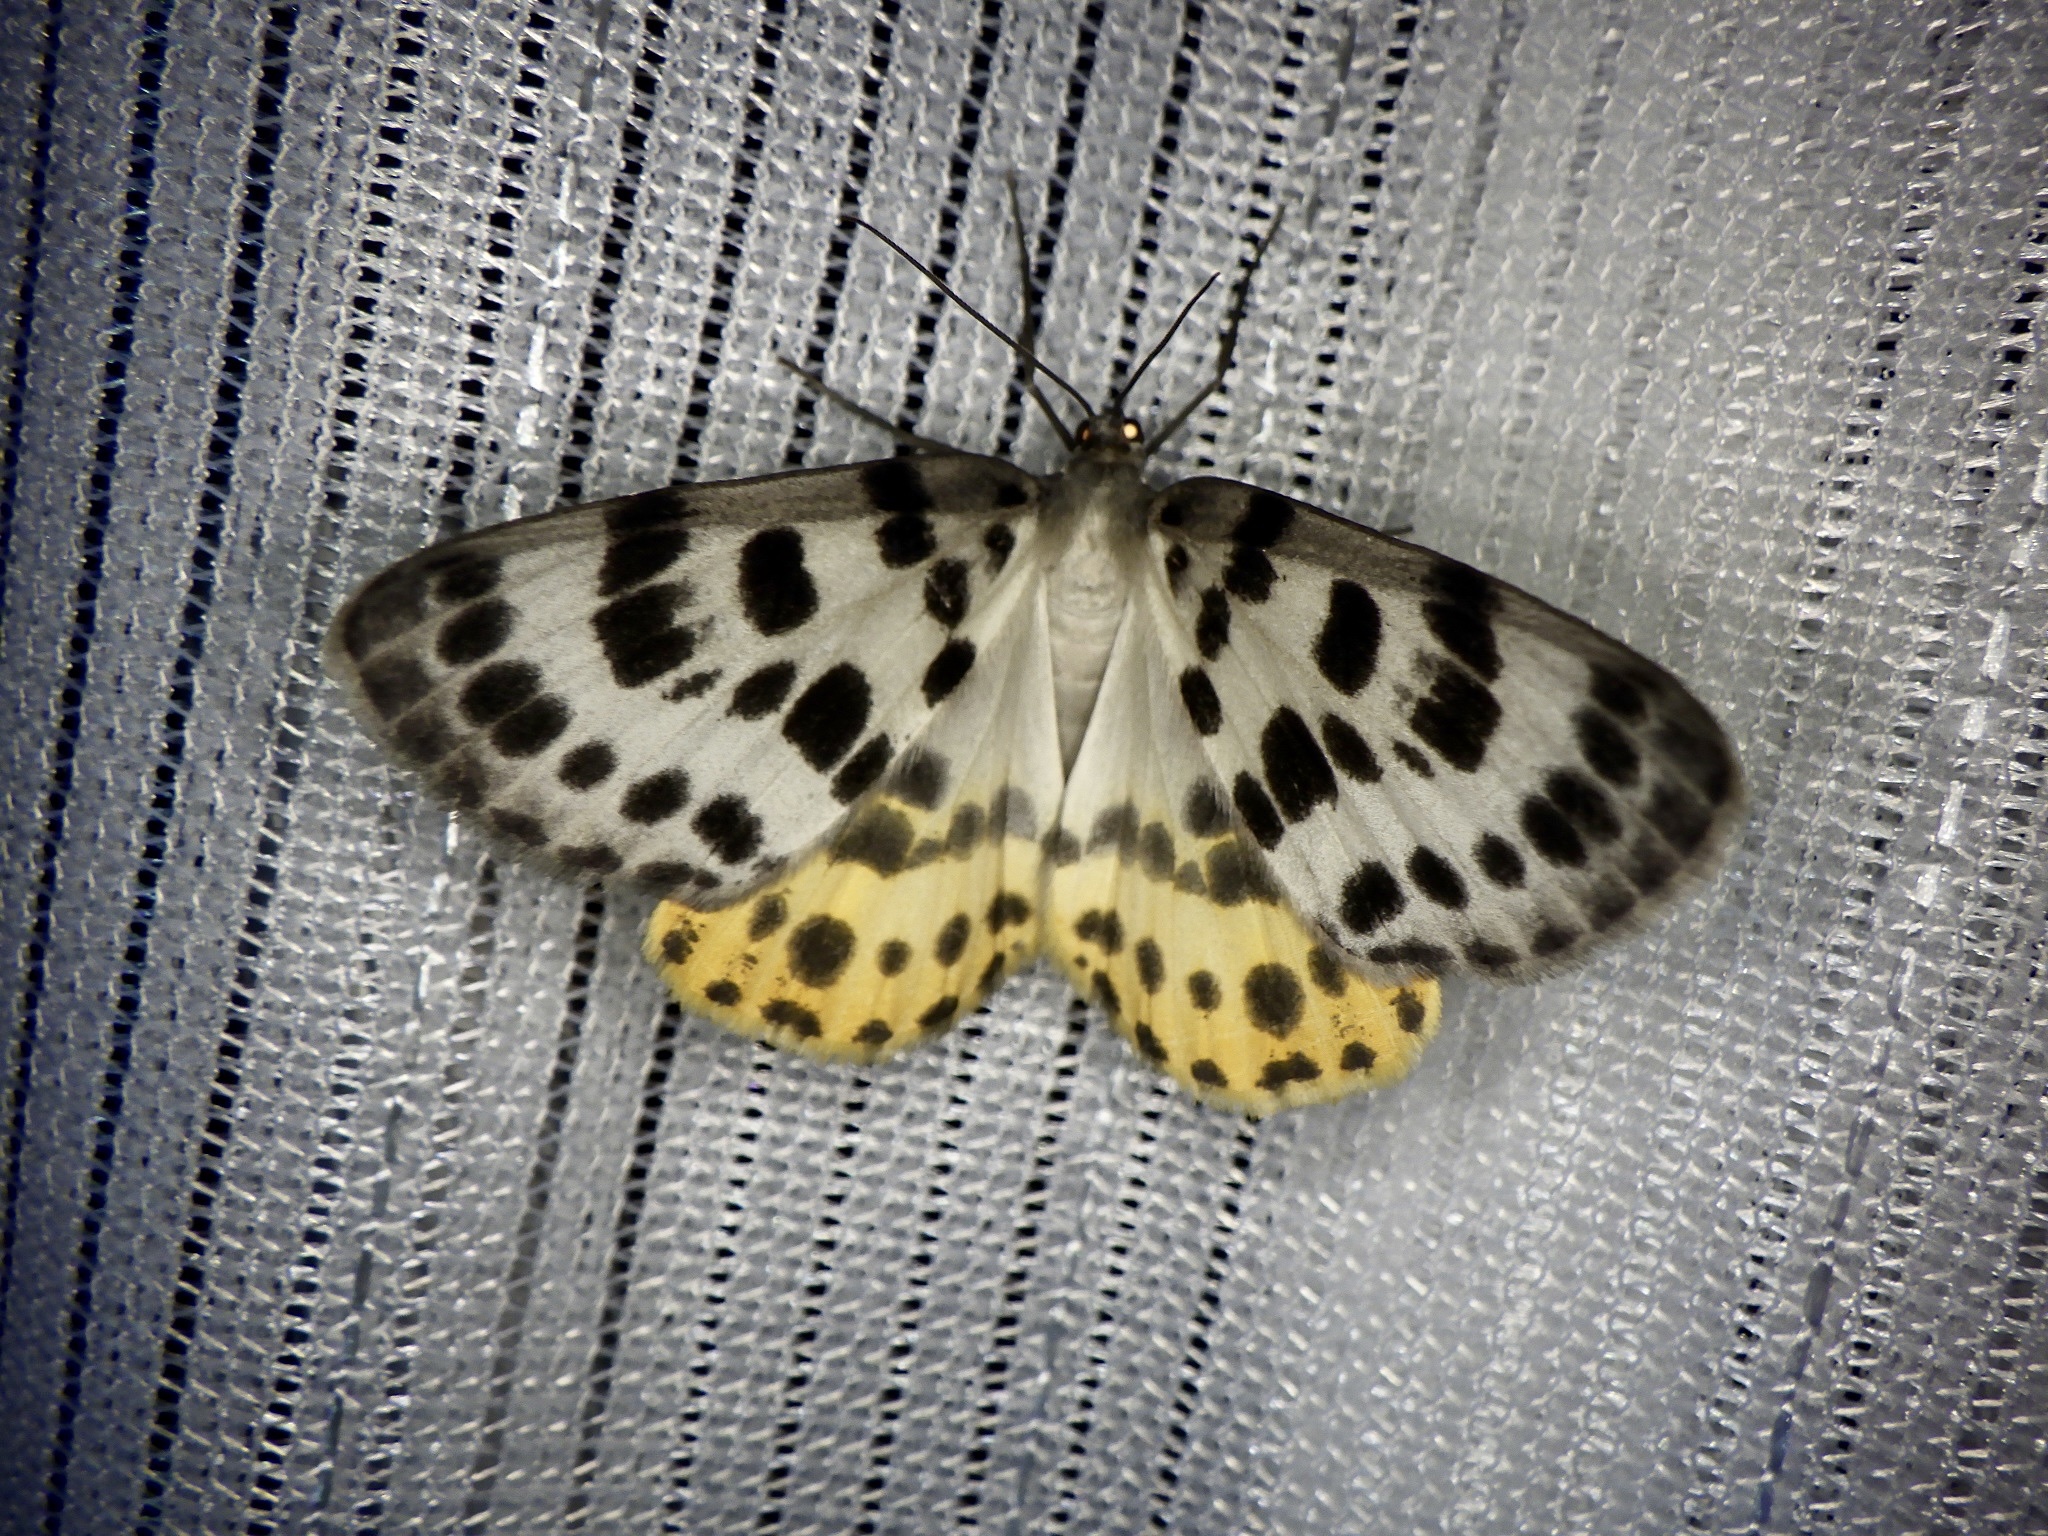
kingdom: Animalia
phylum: Arthropoda
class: Insecta
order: Lepidoptera
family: Geometridae
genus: Arichanna
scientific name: Arichanna
